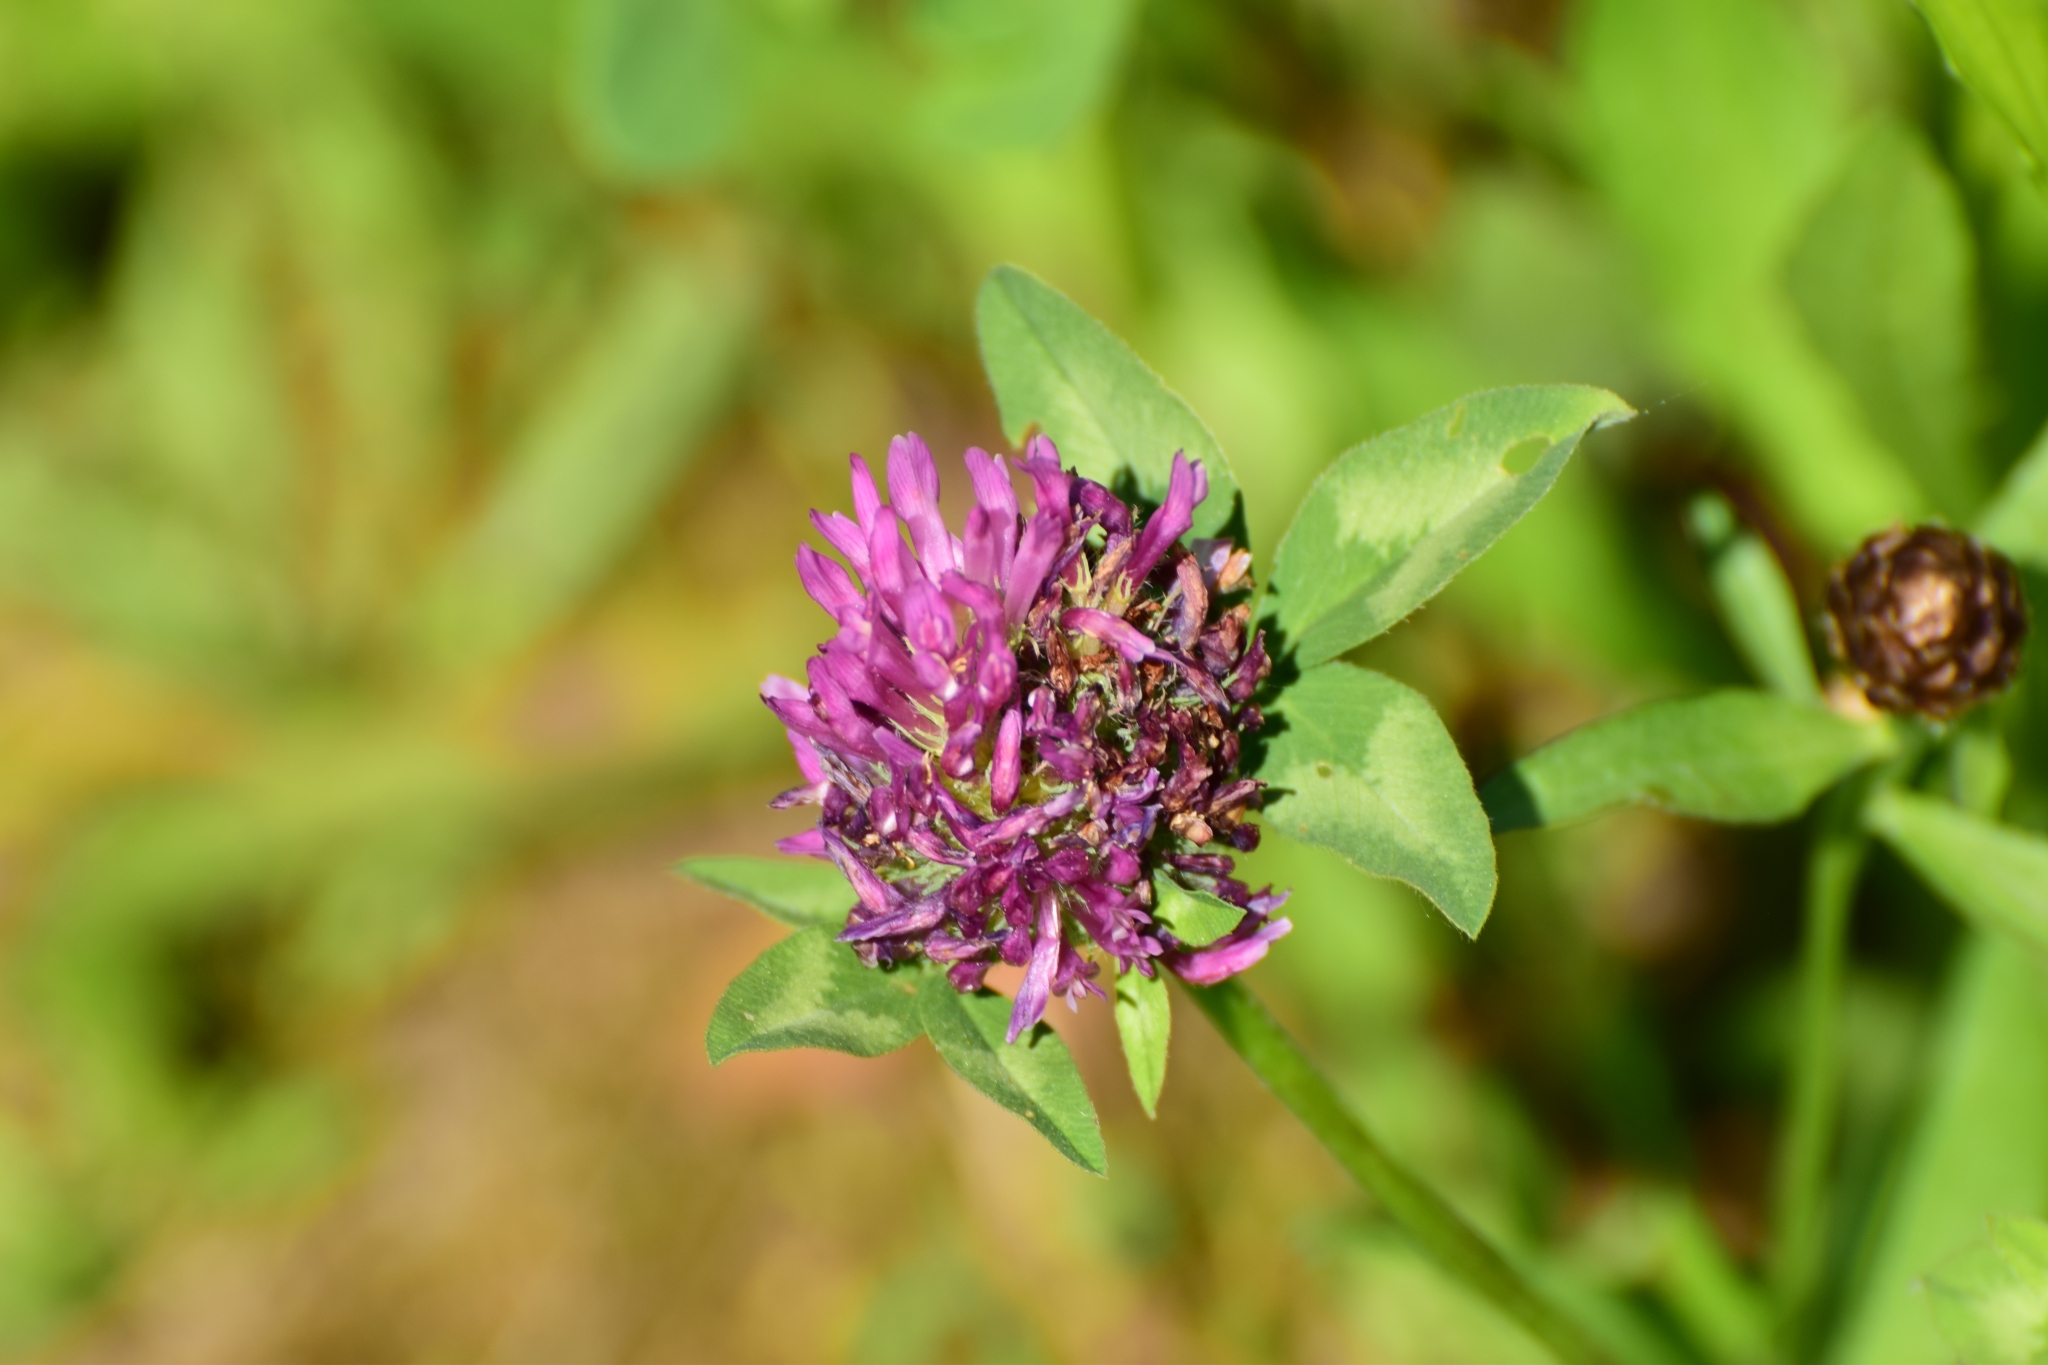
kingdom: Plantae
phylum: Tracheophyta
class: Magnoliopsida
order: Fabales
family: Fabaceae
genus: Trifolium
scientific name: Trifolium pratense
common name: Red clover
